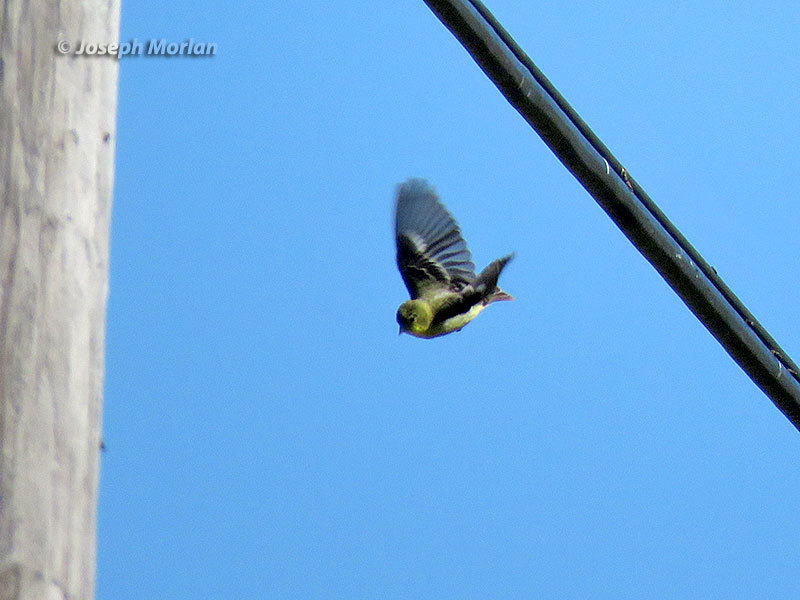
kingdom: Animalia
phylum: Chordata
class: Aves
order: Passeriformes
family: Fringillidae
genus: Spinus
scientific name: Spinus psaltria
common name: Lesser goldfinch
